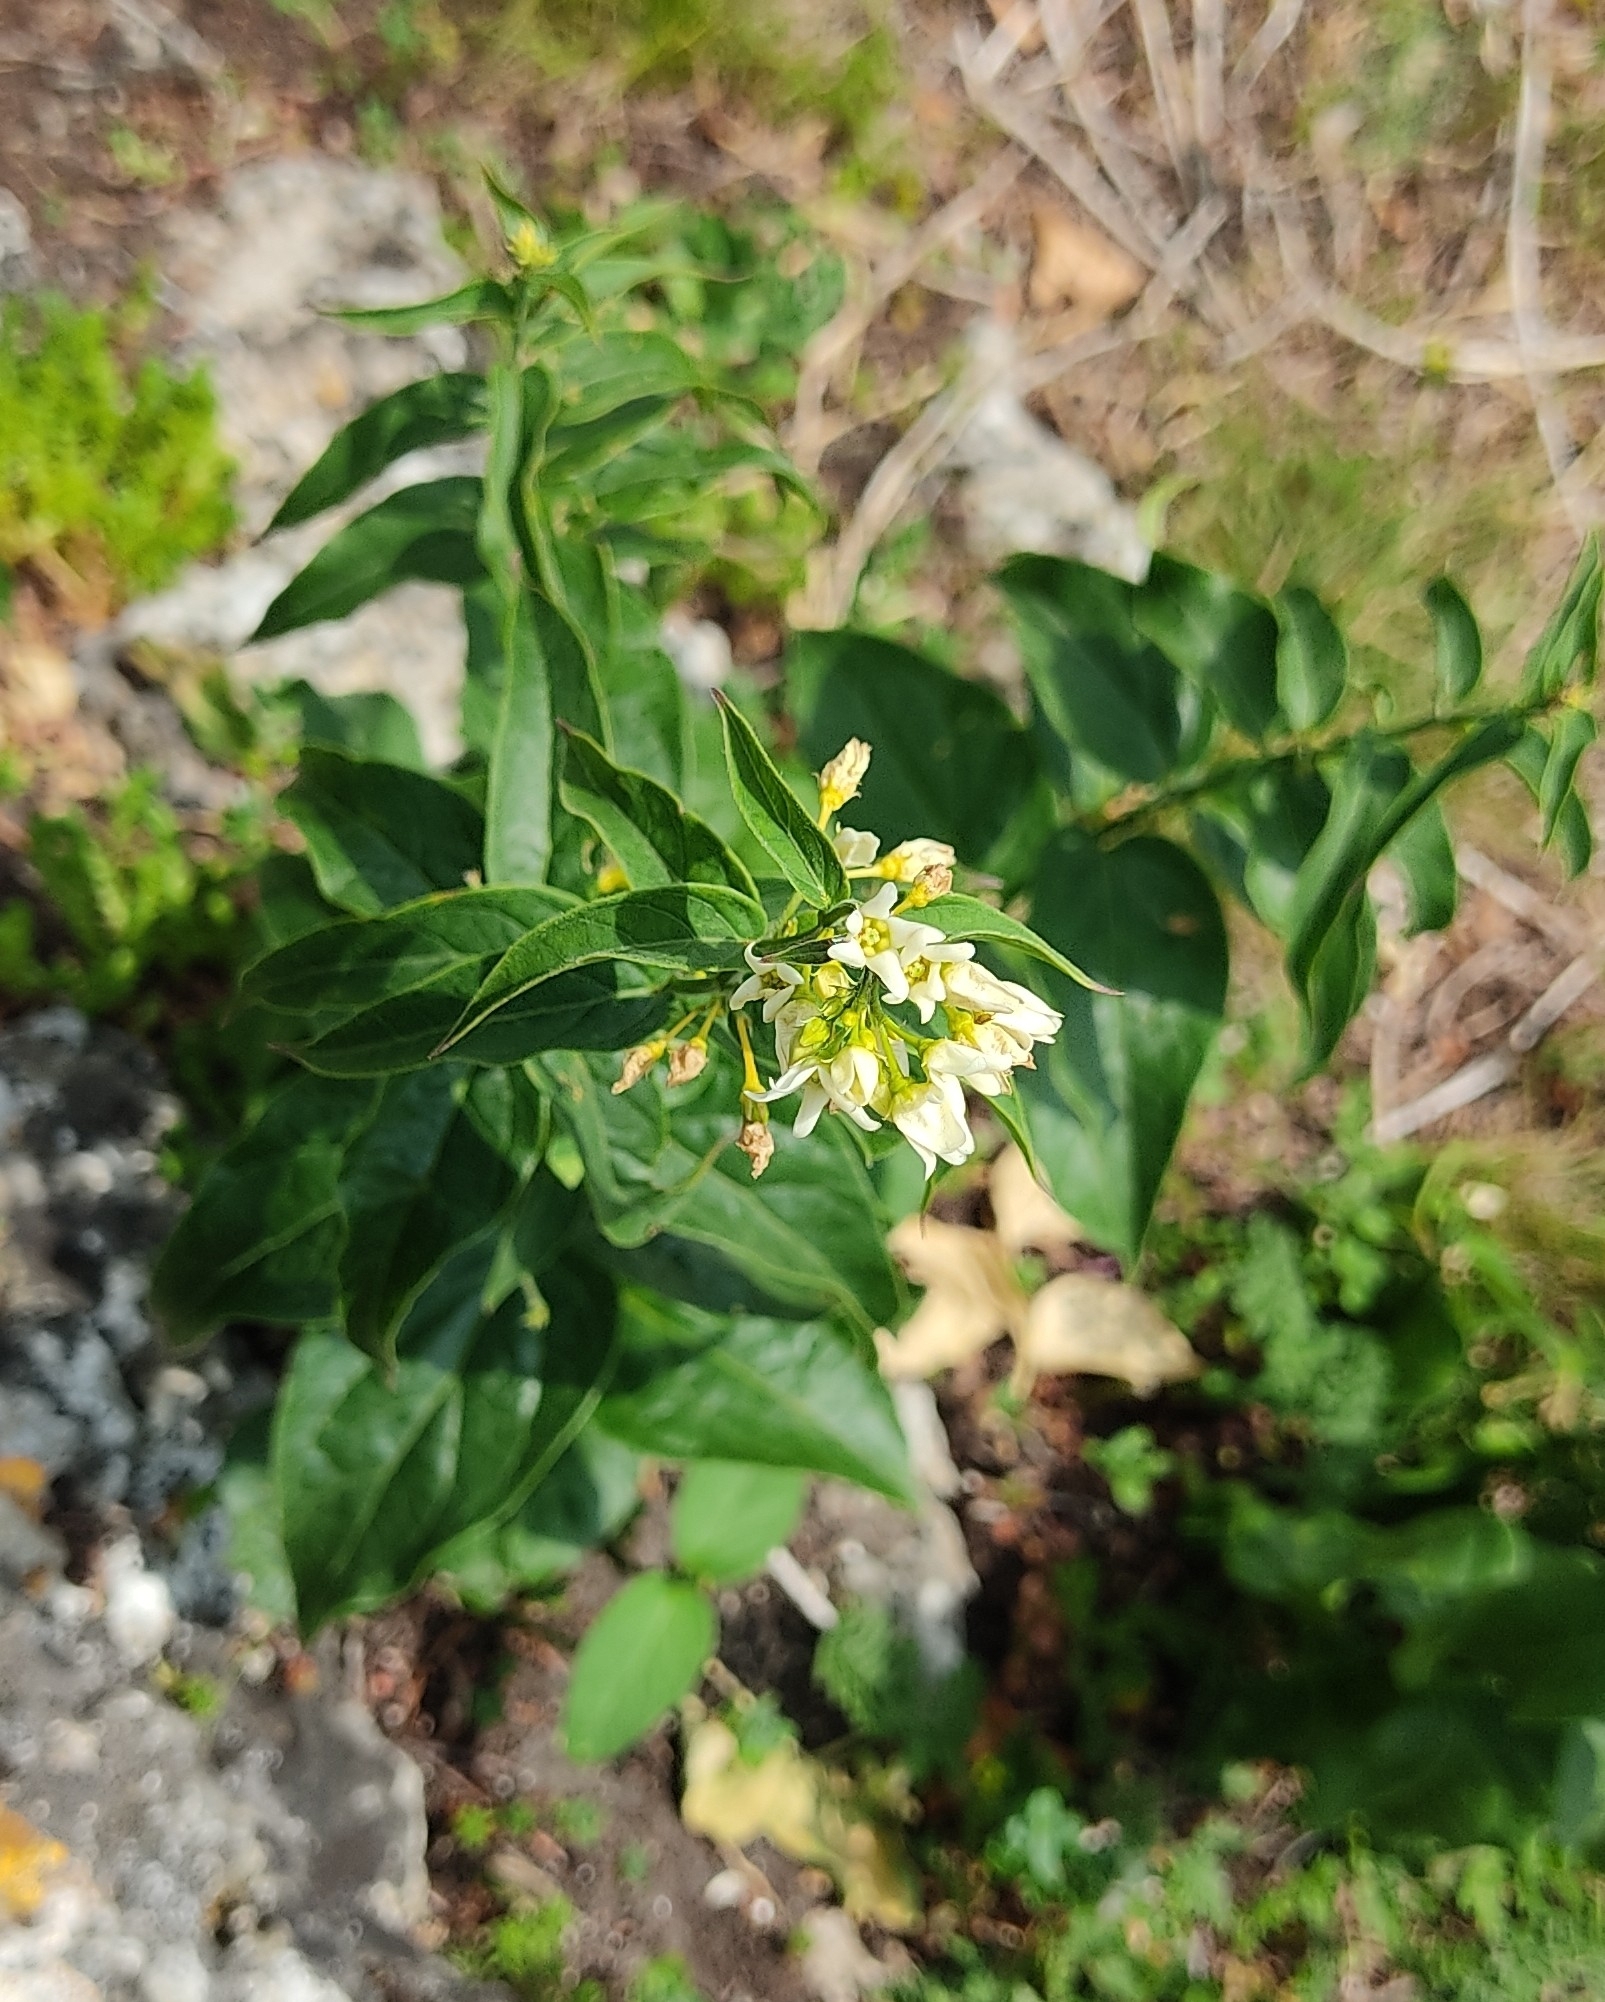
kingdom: Plantae
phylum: Tracheophyta
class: Magnoliopsida
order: Gentianales
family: Apocynaceae
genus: Vincetoxicum
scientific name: Vincetoxicum hirundinaria
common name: White swallowwort
